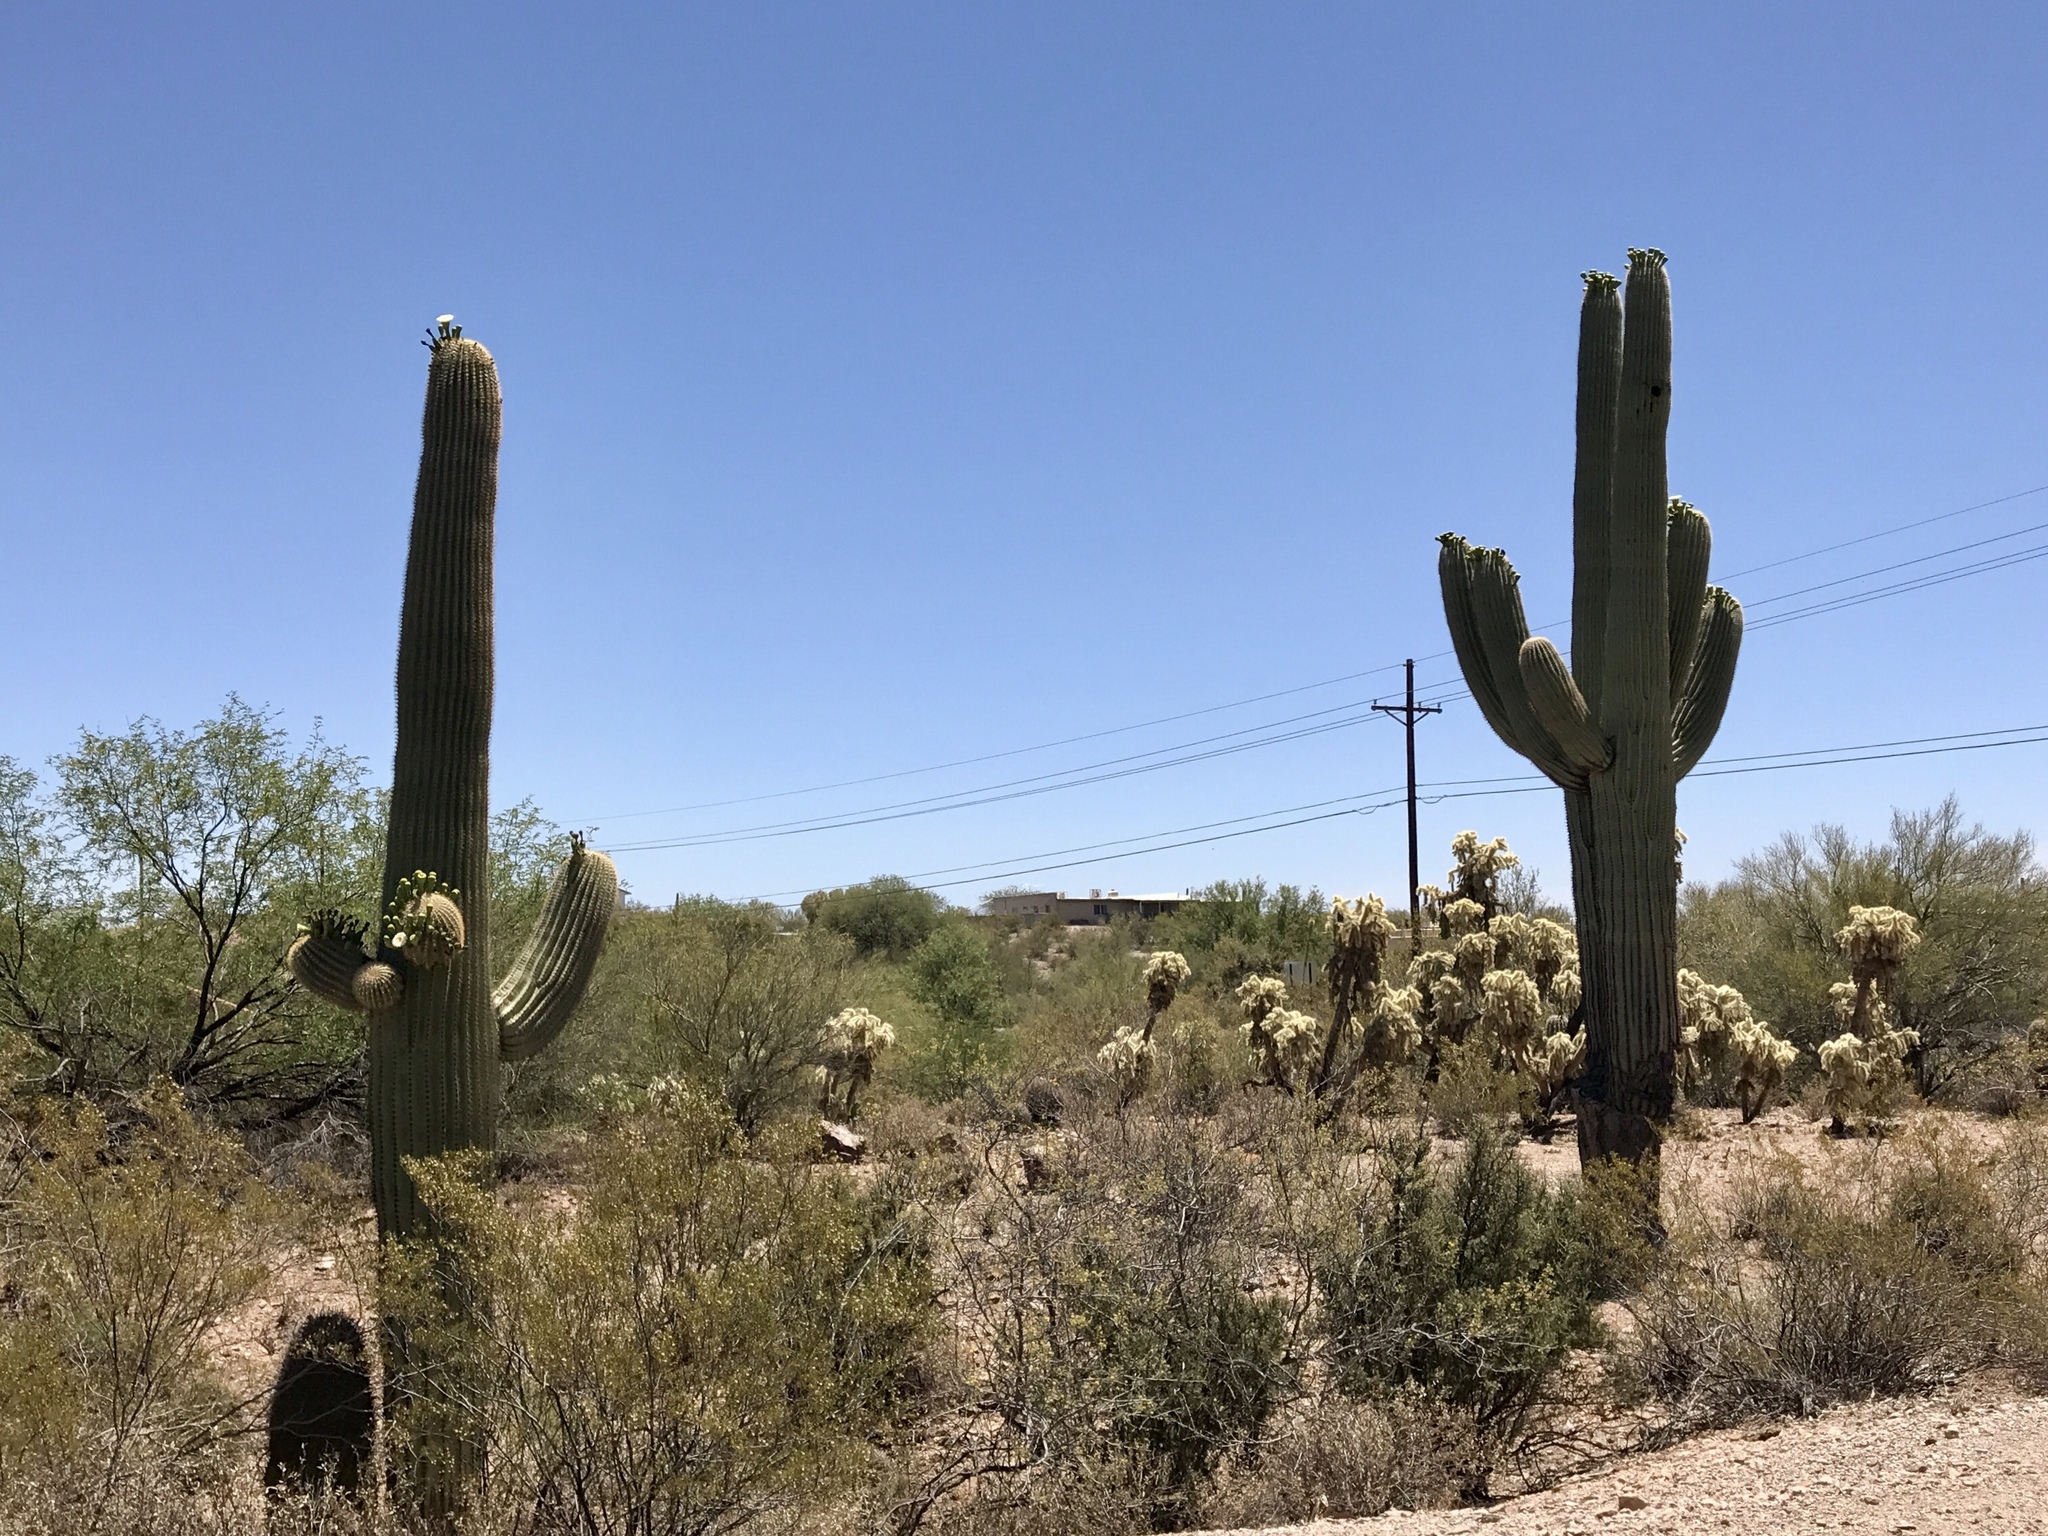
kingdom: Plantae
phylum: Tracheophyta
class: Magnoliopsida
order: Caryophyllales
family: Cactaceae
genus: Carnegiea
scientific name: Carnegiea gigantea
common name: Saguaro
